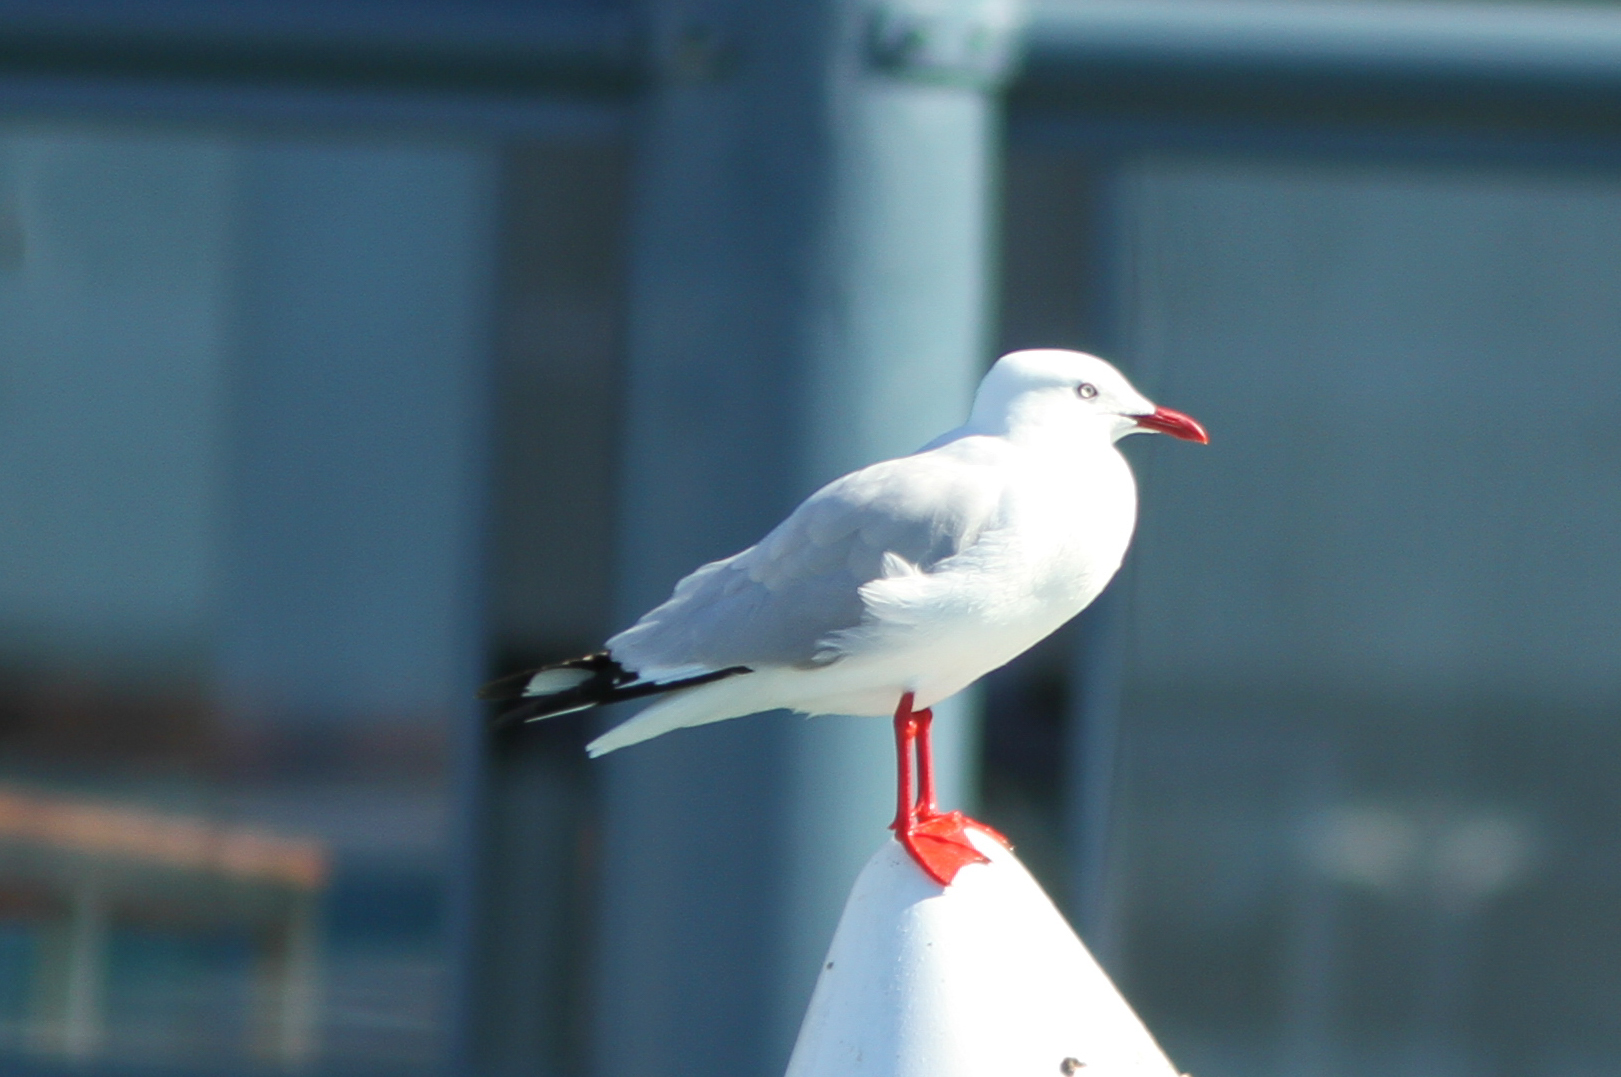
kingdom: Animalia
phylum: Chordata
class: Aves
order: Charadriiformes
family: Laridae
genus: Chroicocephalus
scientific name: Chroicocephalus novaehollandiae
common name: Silver gull
